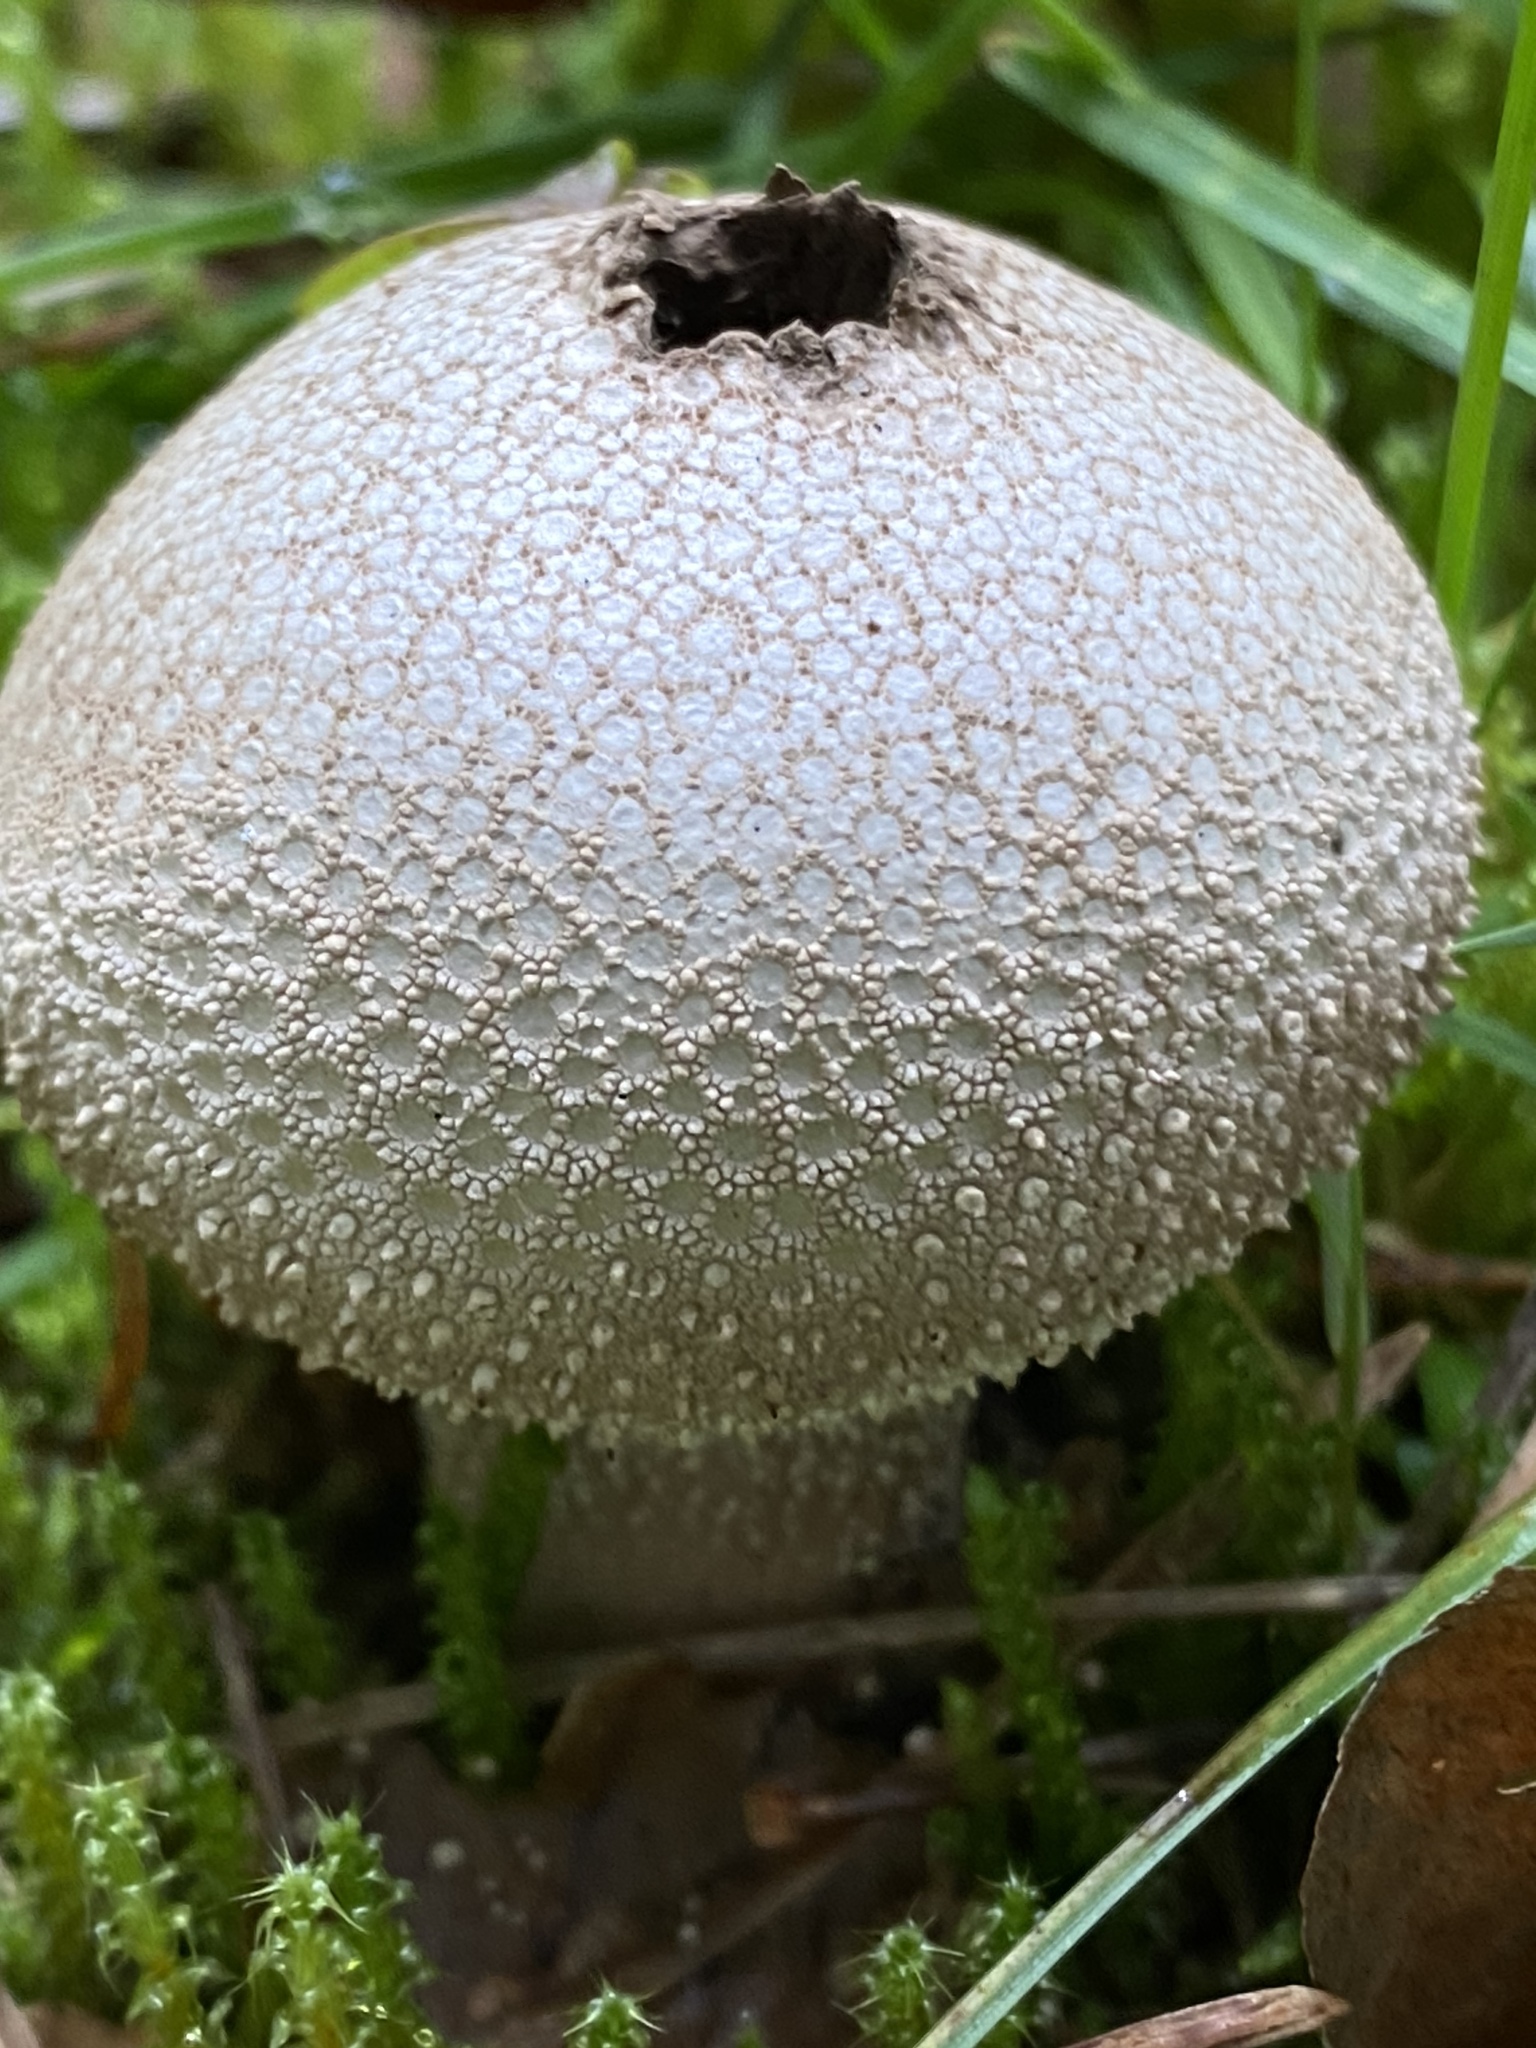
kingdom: Fungi
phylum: Basidiomycota
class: Agaricomycetes
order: Agaricales
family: Lycoperdaceae
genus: Lycoperdon
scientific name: Lycoperdon perlatum
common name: Common puffball
